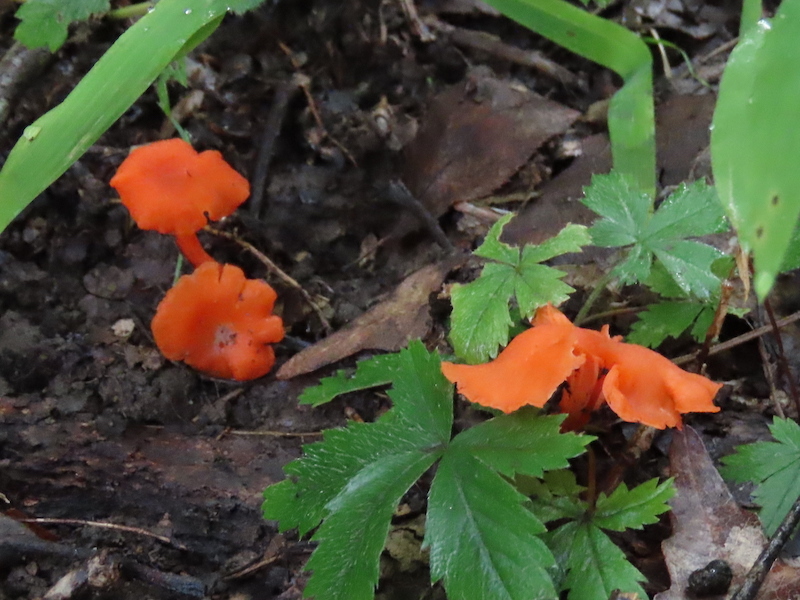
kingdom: Fungi
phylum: Basidiomycota
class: Agaricomycetes
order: Cantharellales
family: Hydnaceae
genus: Cantharellus
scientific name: Cantharellus cinnabarinus
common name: Cinnabar chanterelle
